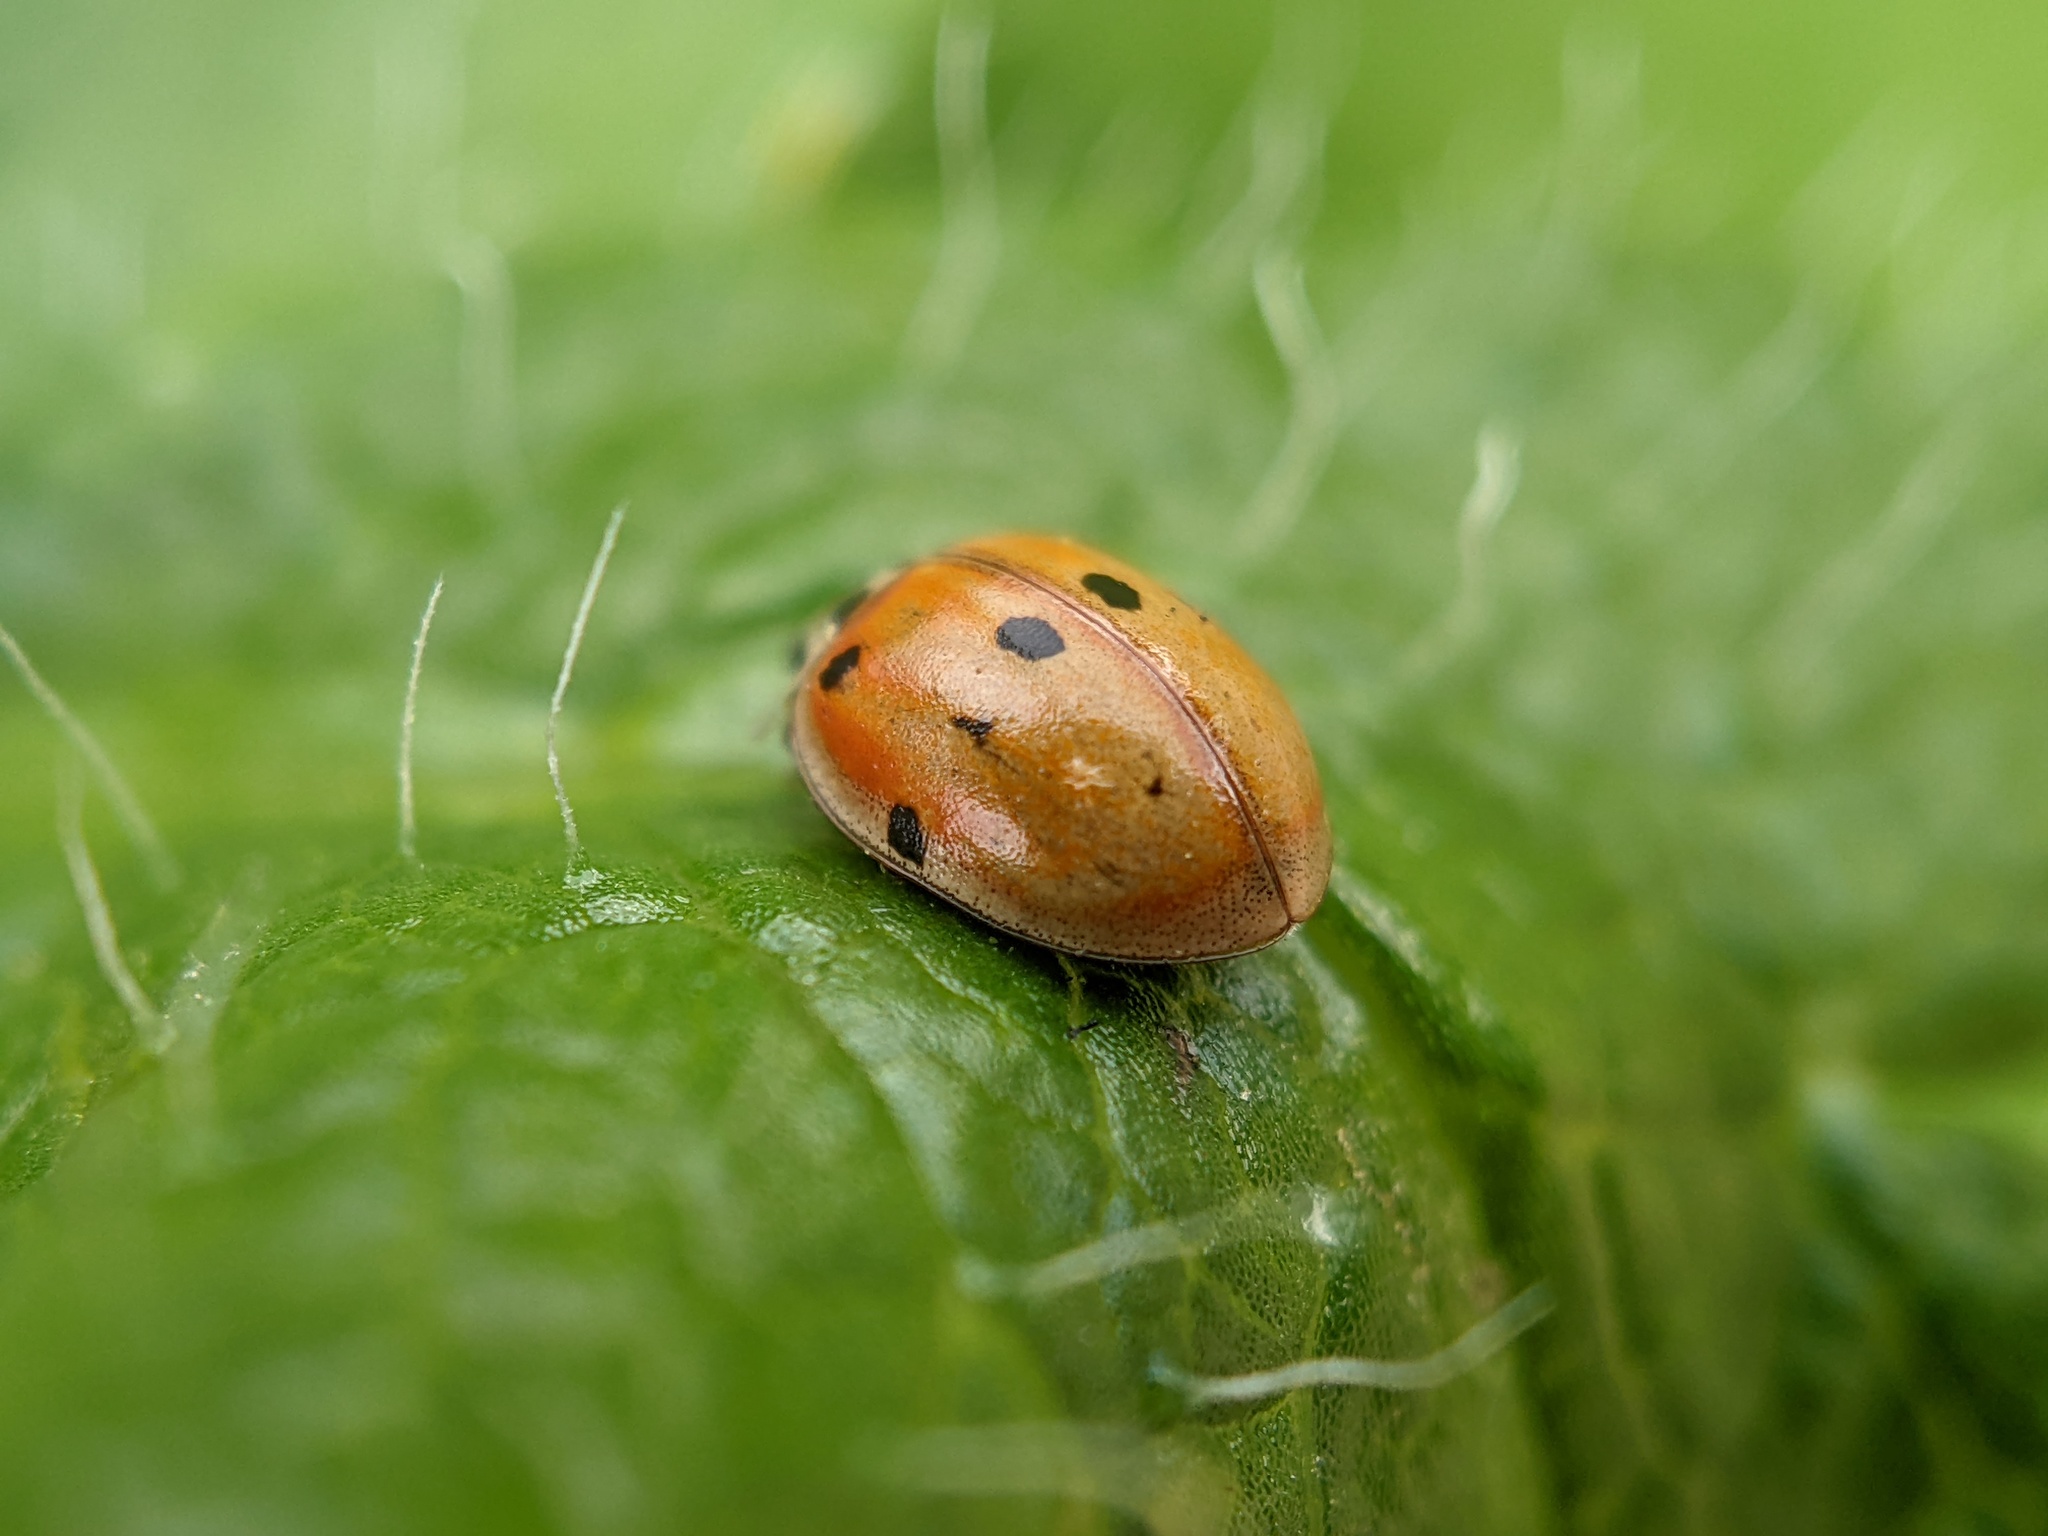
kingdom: Animalia
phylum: Arthropoda
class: Insecta
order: Coleoptera
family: Coccinellidae
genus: Adalia
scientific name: Adalia decempunctata
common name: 10-spot ladybird
